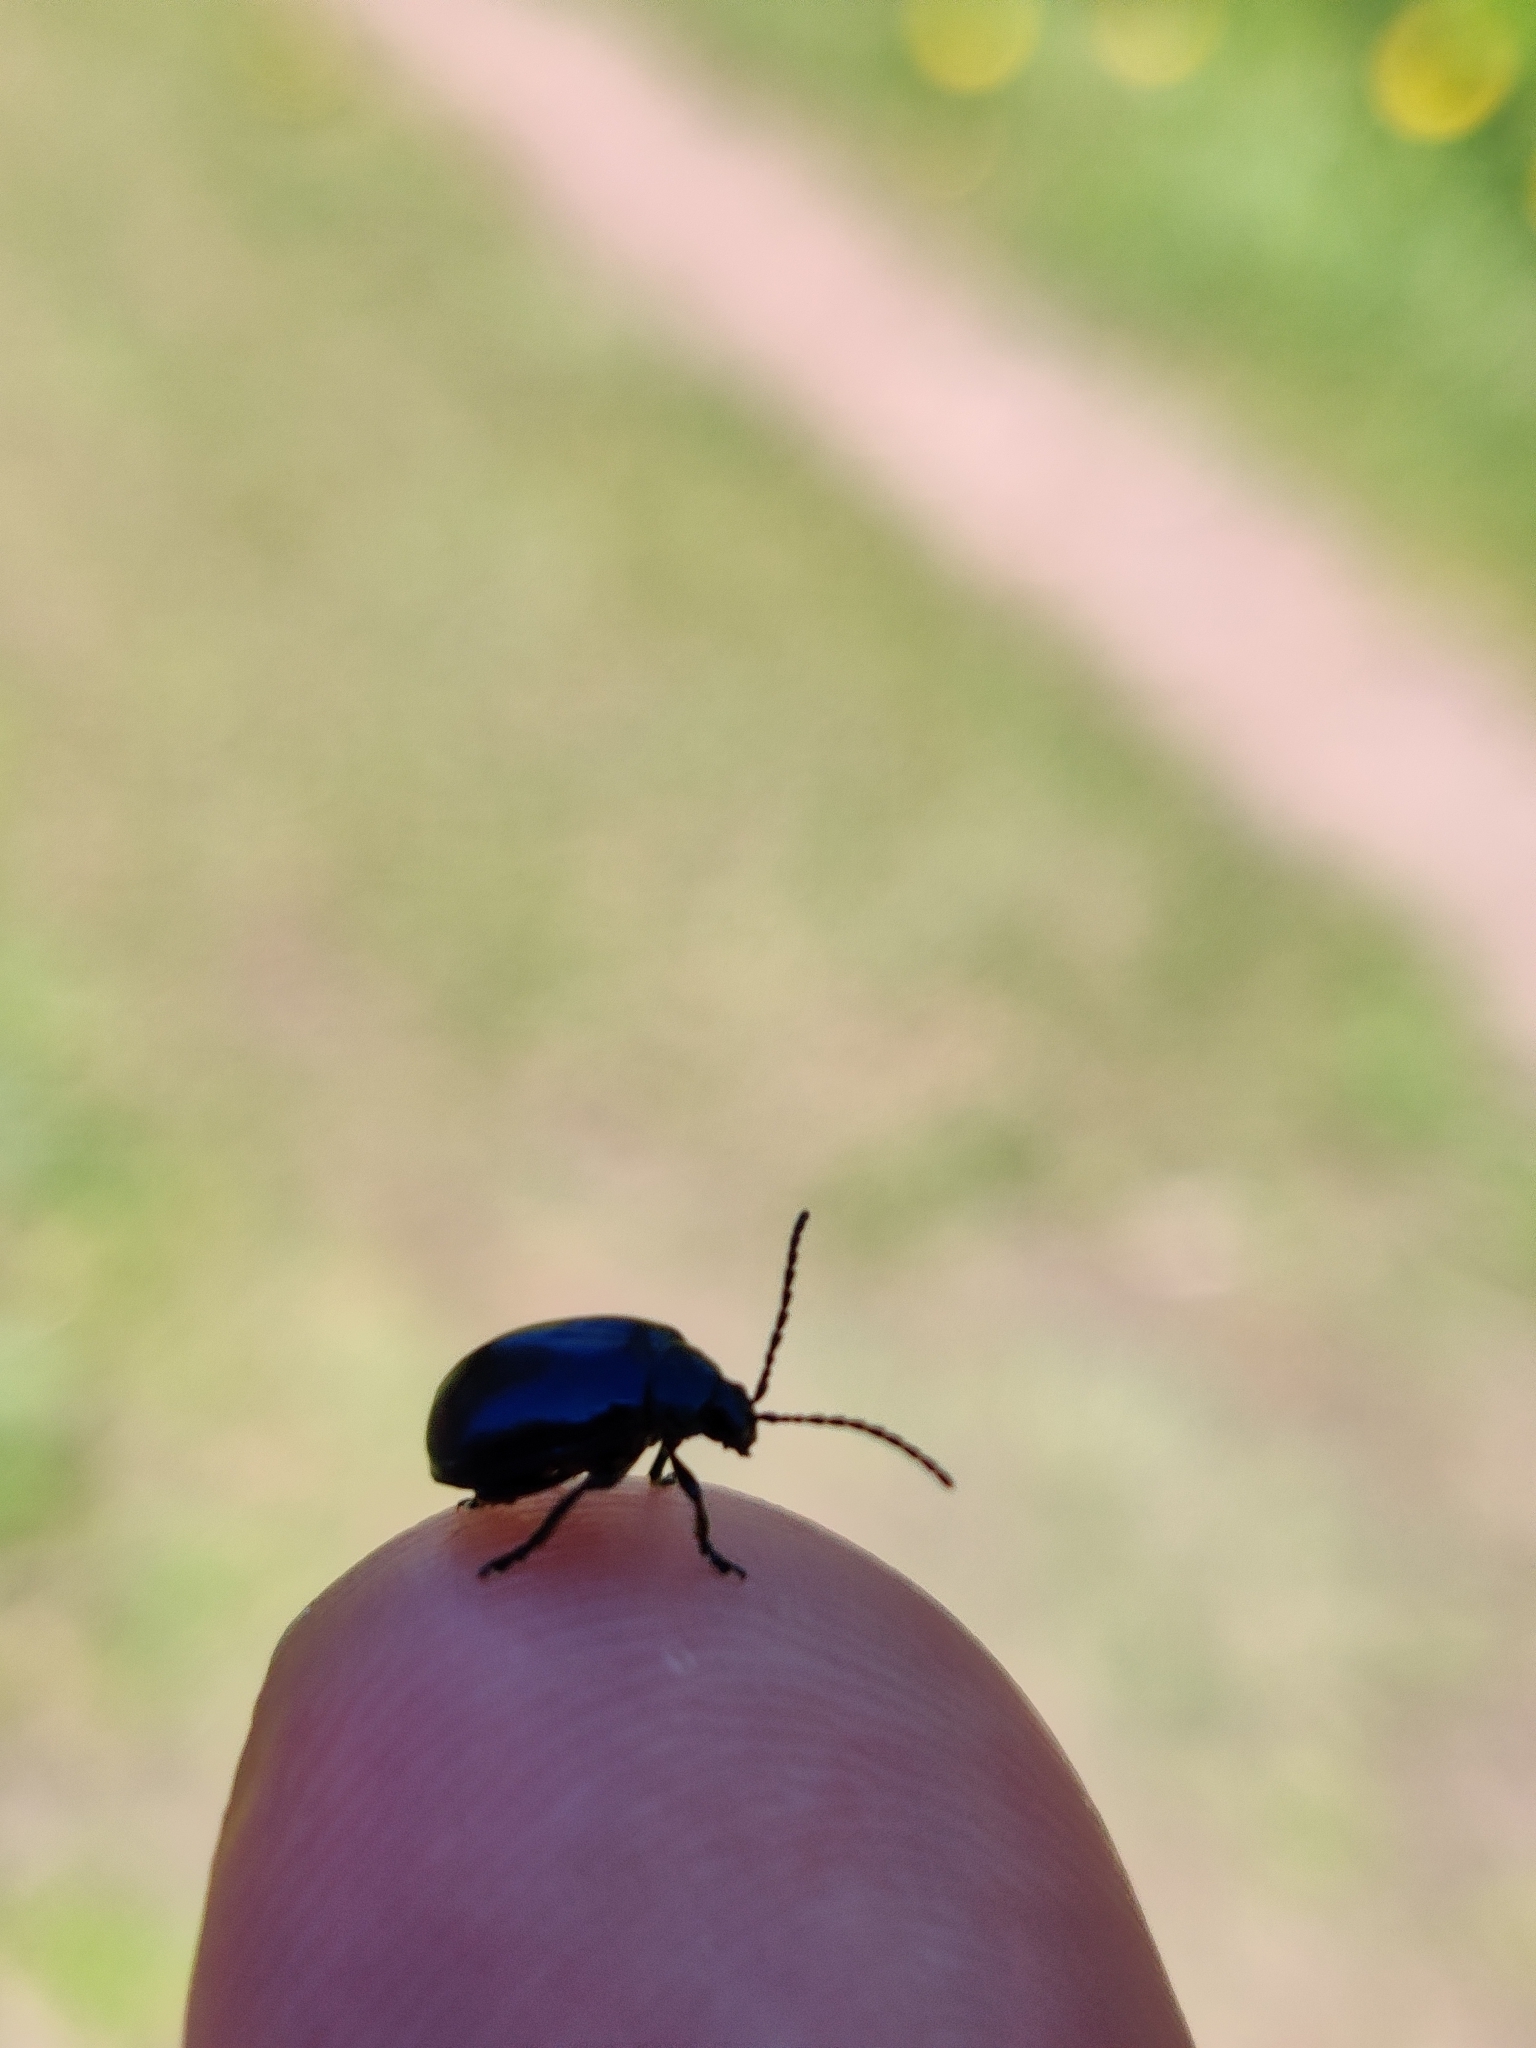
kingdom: Animalia
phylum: Arthropoda
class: Insecta
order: Coleoptera
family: Chrysomelidae
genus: Agelastica
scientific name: Agelastica alni
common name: Alder leaf beetle
